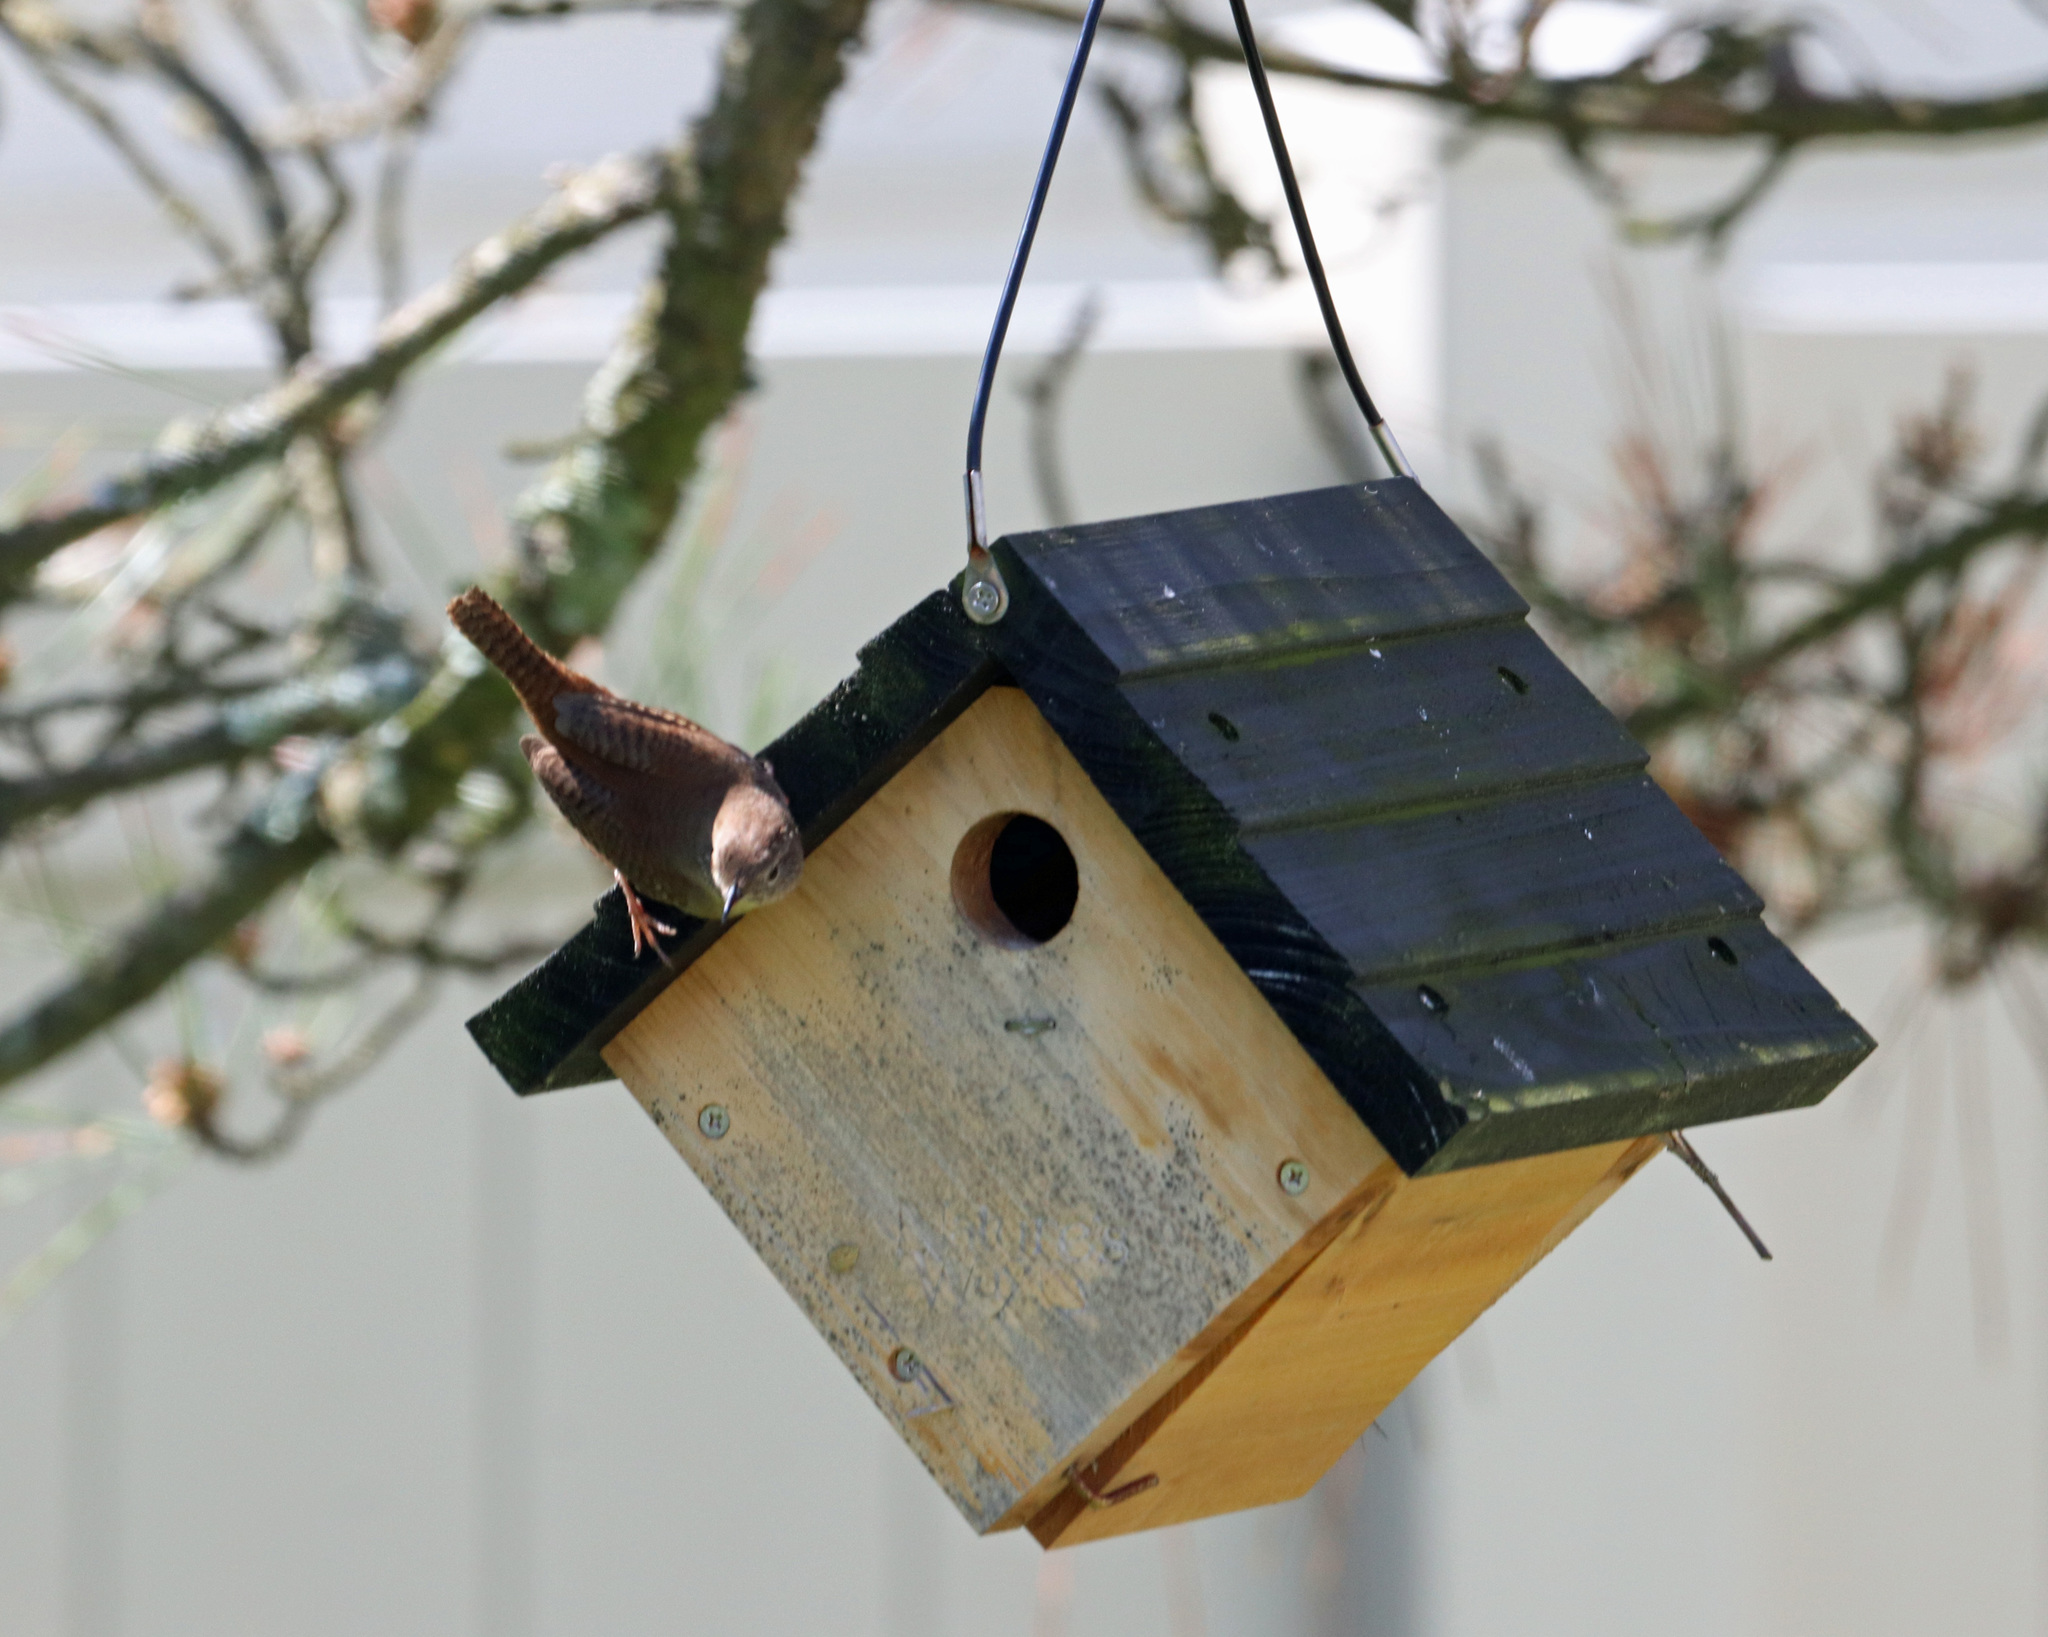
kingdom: Animalia
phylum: Chordata
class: Aves
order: Passeriformes
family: Troglodytidae
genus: Troglodytes
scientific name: Troglodytes aedon
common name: House wren
